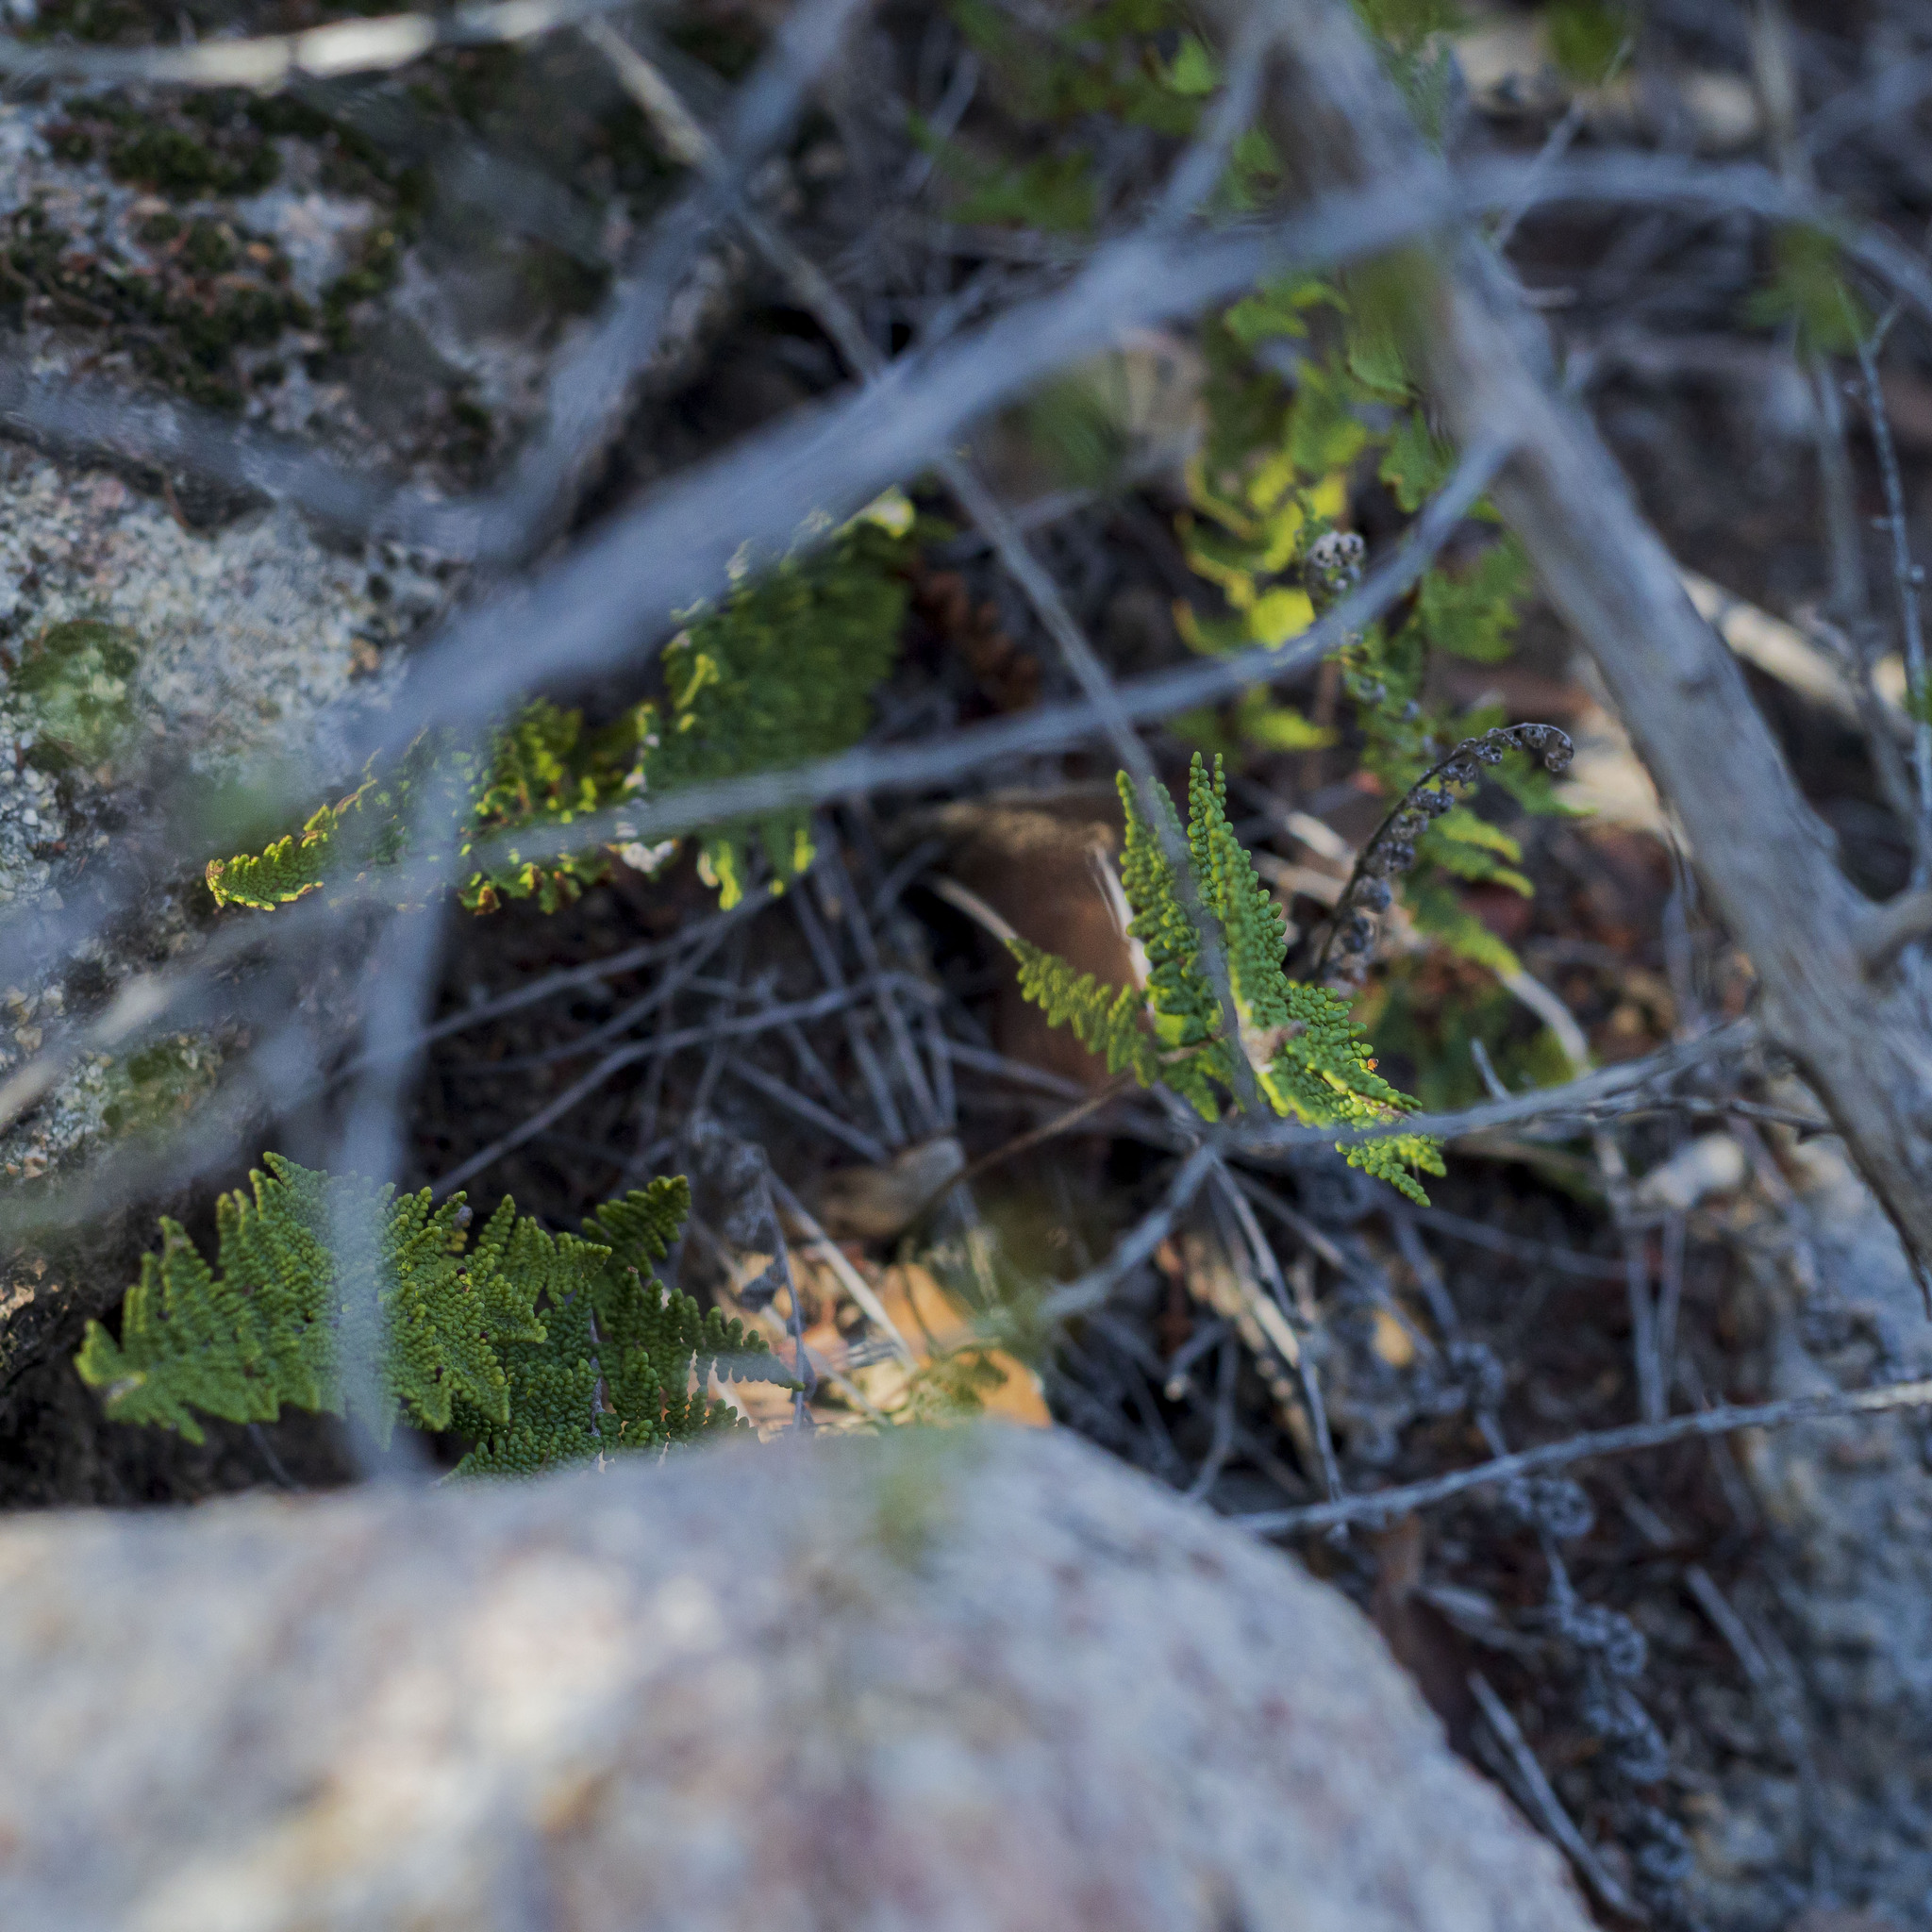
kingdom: Plantae
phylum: Tracheophyta
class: Polypodiopsida
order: Polypodiales
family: Pteridaceae
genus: Myriopteris
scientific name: Myriopteris clevelandii
